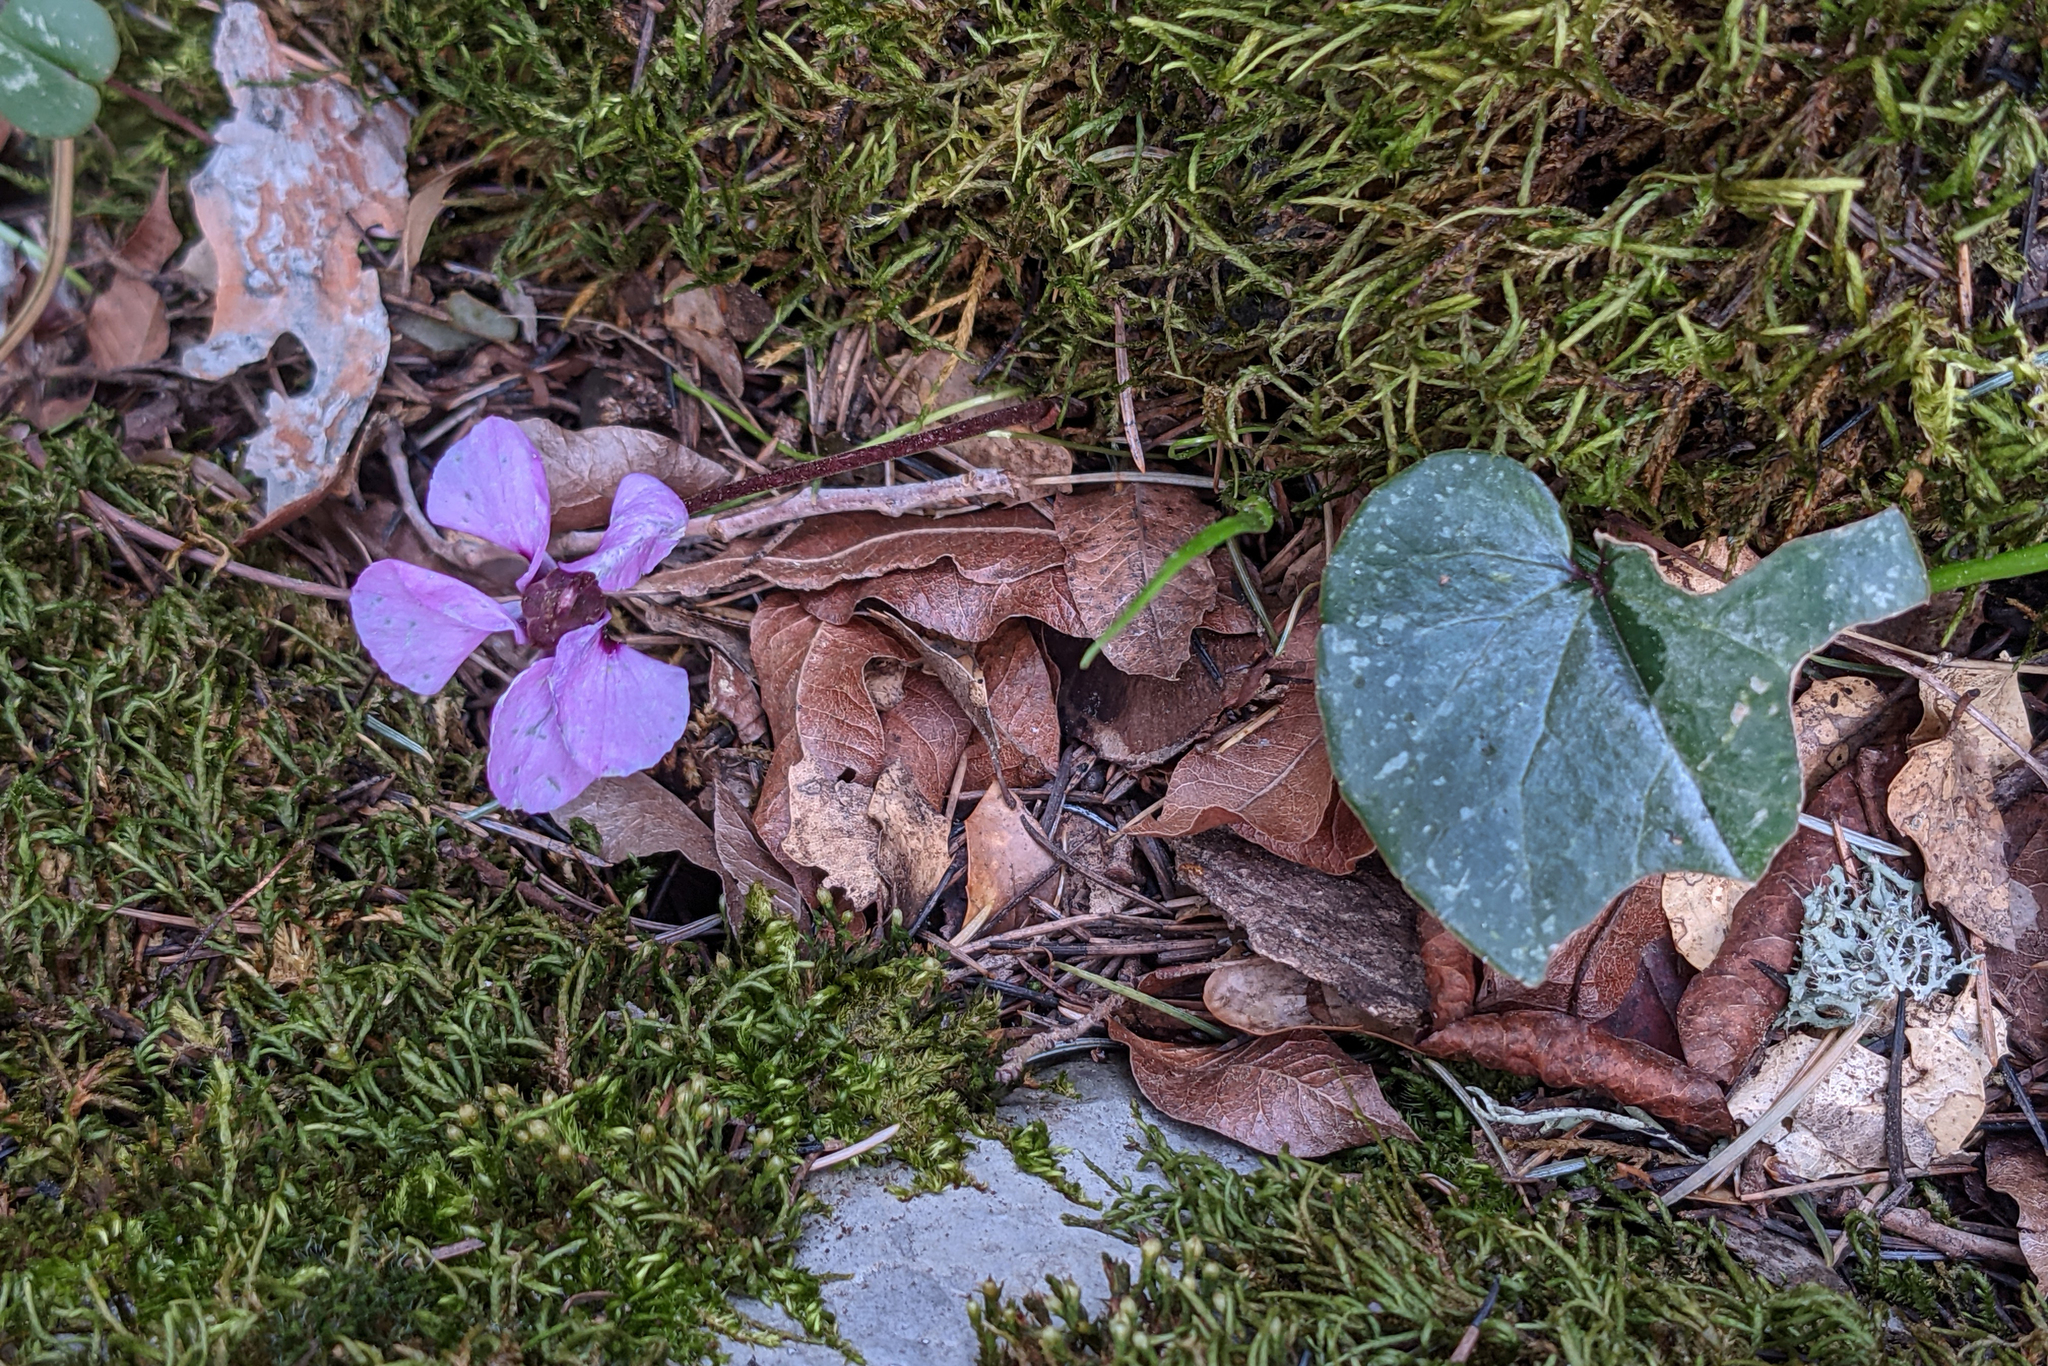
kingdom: Plantae
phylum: Tracheophyta
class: Magnoliopsida
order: Ericales
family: Primulaceae
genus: Cyclamen
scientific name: Cyclamen alpinum
